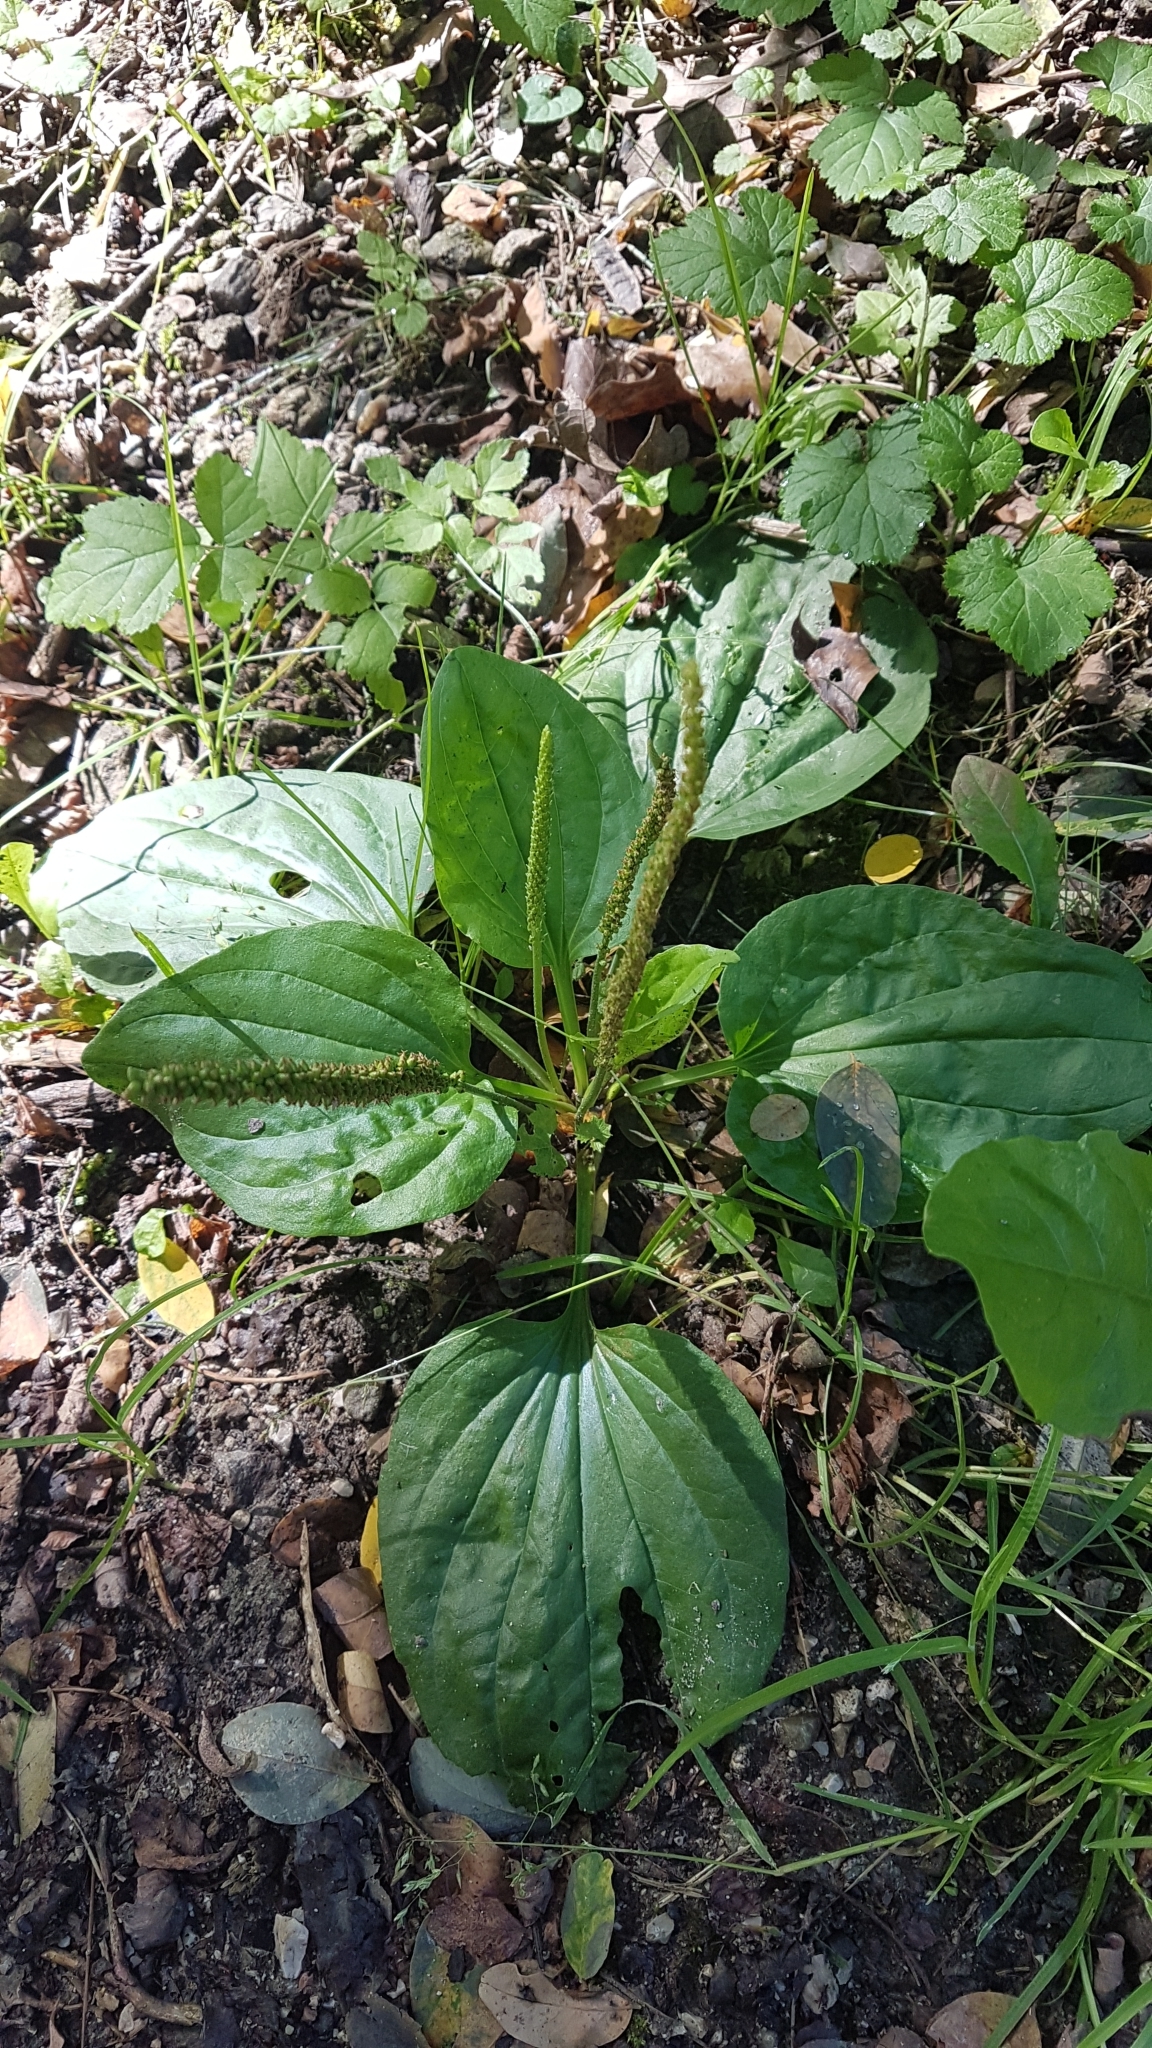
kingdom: Plantae
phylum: Tracheophyta
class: Magnoliopsida
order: Lamiales
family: Plantaginaceae
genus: Plantago
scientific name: Plantago major
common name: Common plantain
